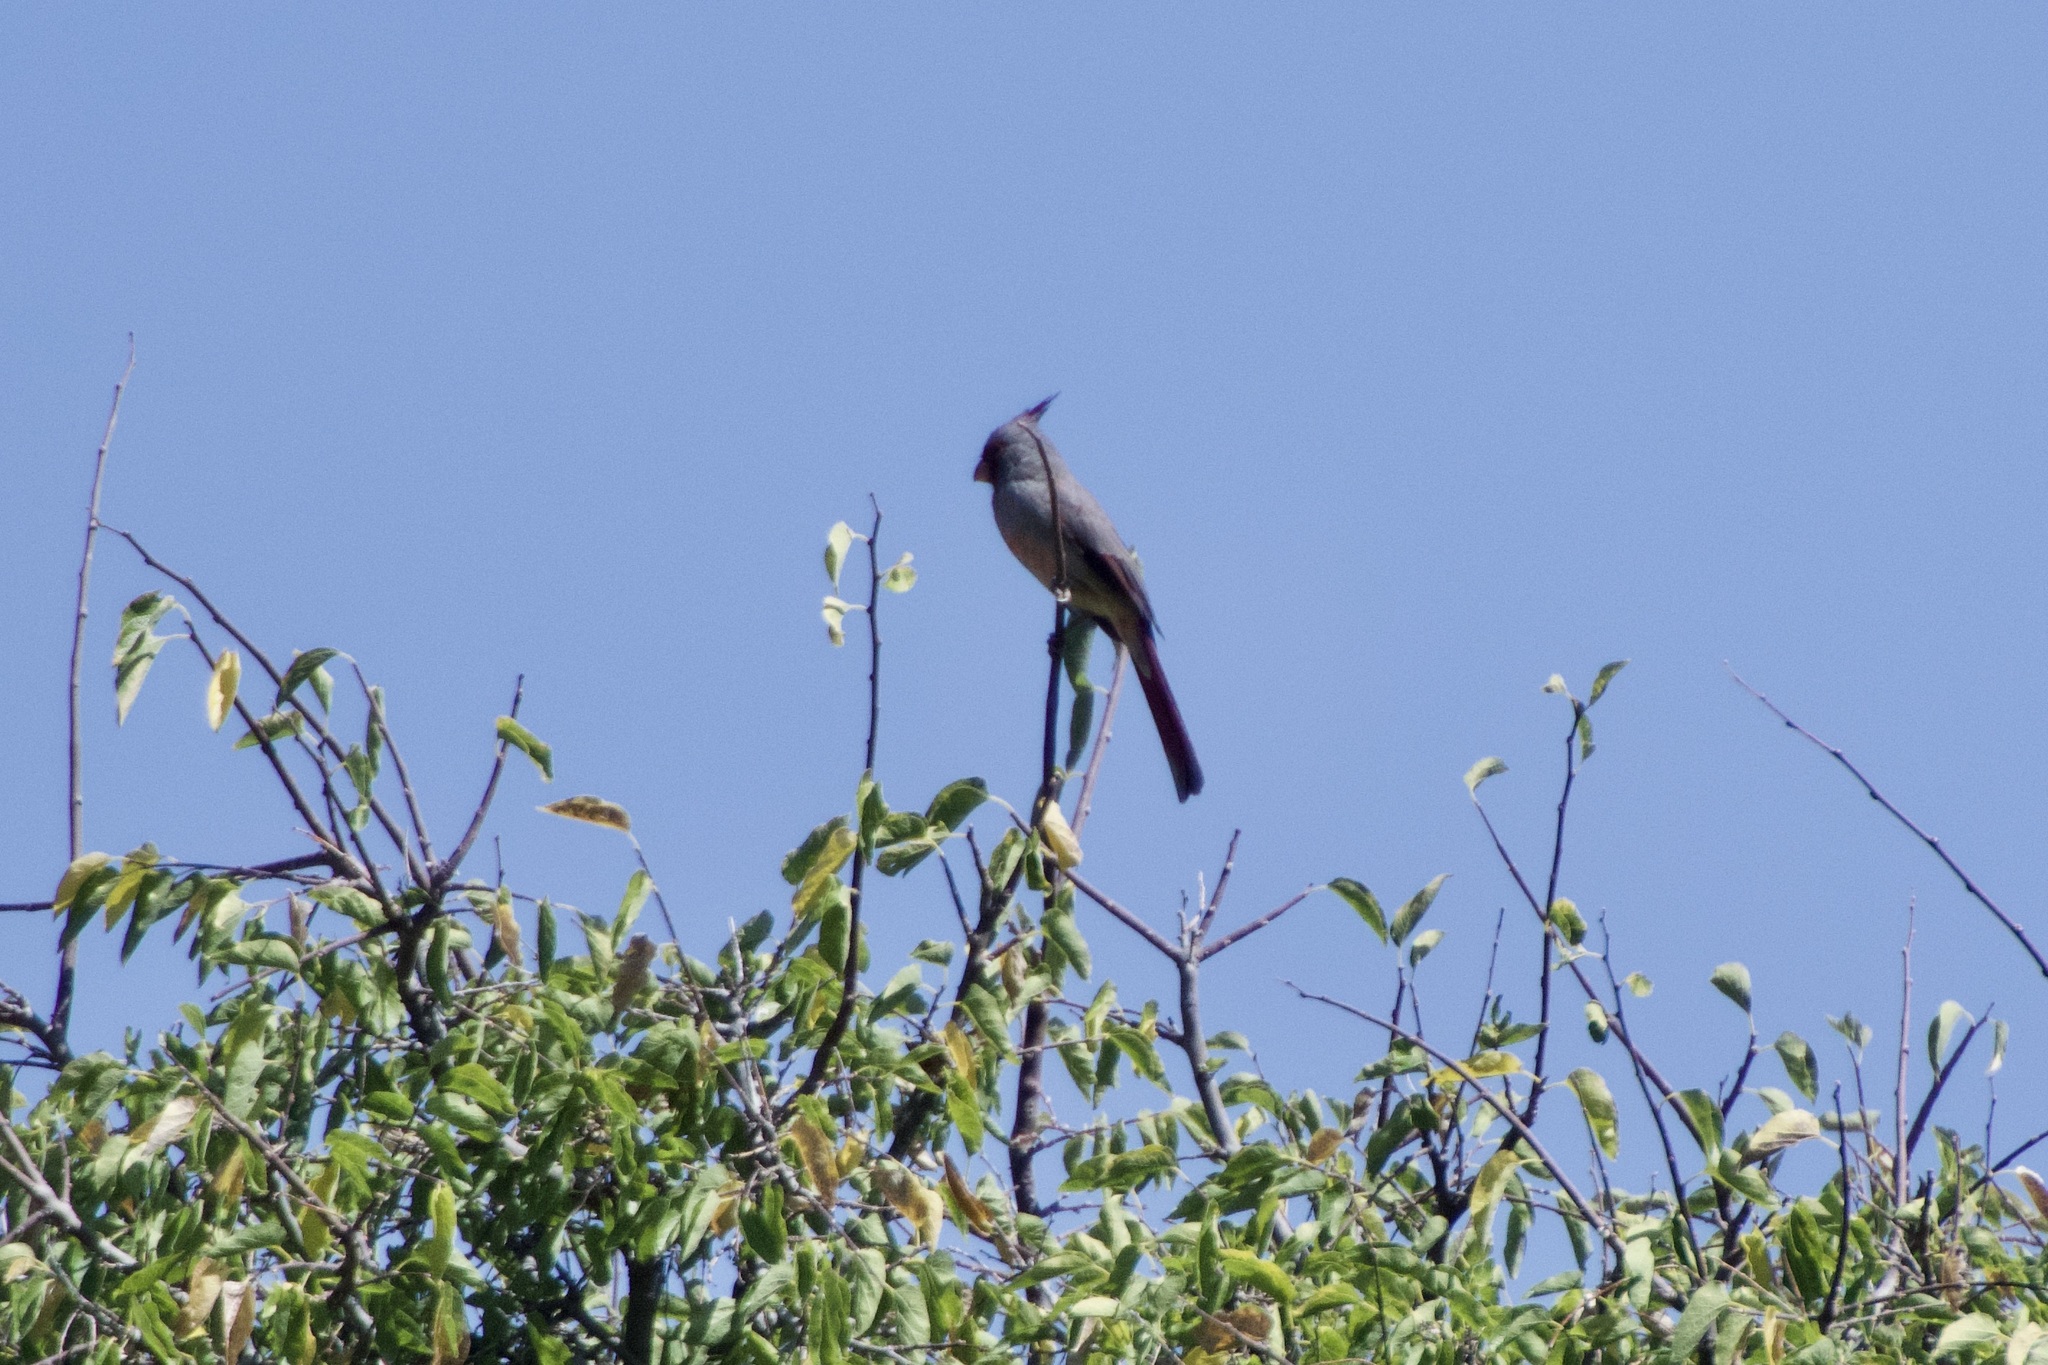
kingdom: Animalia
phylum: Chordata
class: Aves
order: Passeriformes
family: Cardinalidae
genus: Cardinalis
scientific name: Cardinalis sinuatus
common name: Pyrrhuloxia
